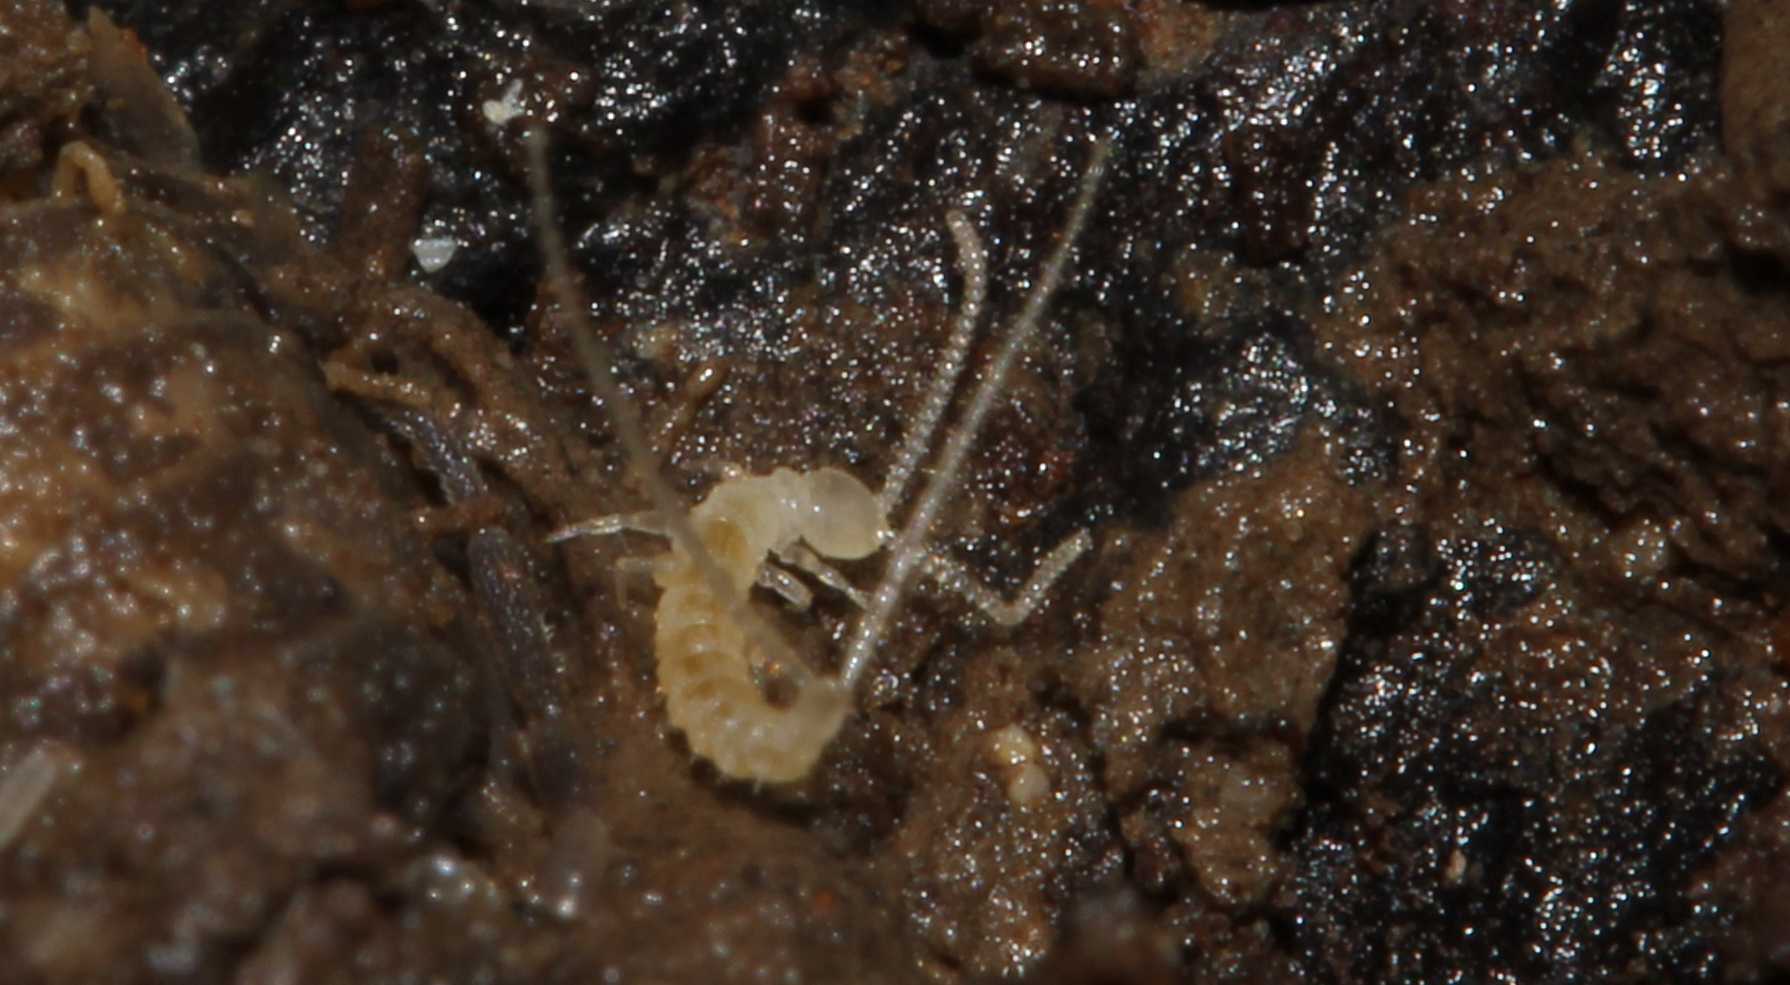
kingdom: Animalia
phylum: Arthropoda
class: Diplura
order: Diplura
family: Campodeidae
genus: Campodea
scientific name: Campodea
